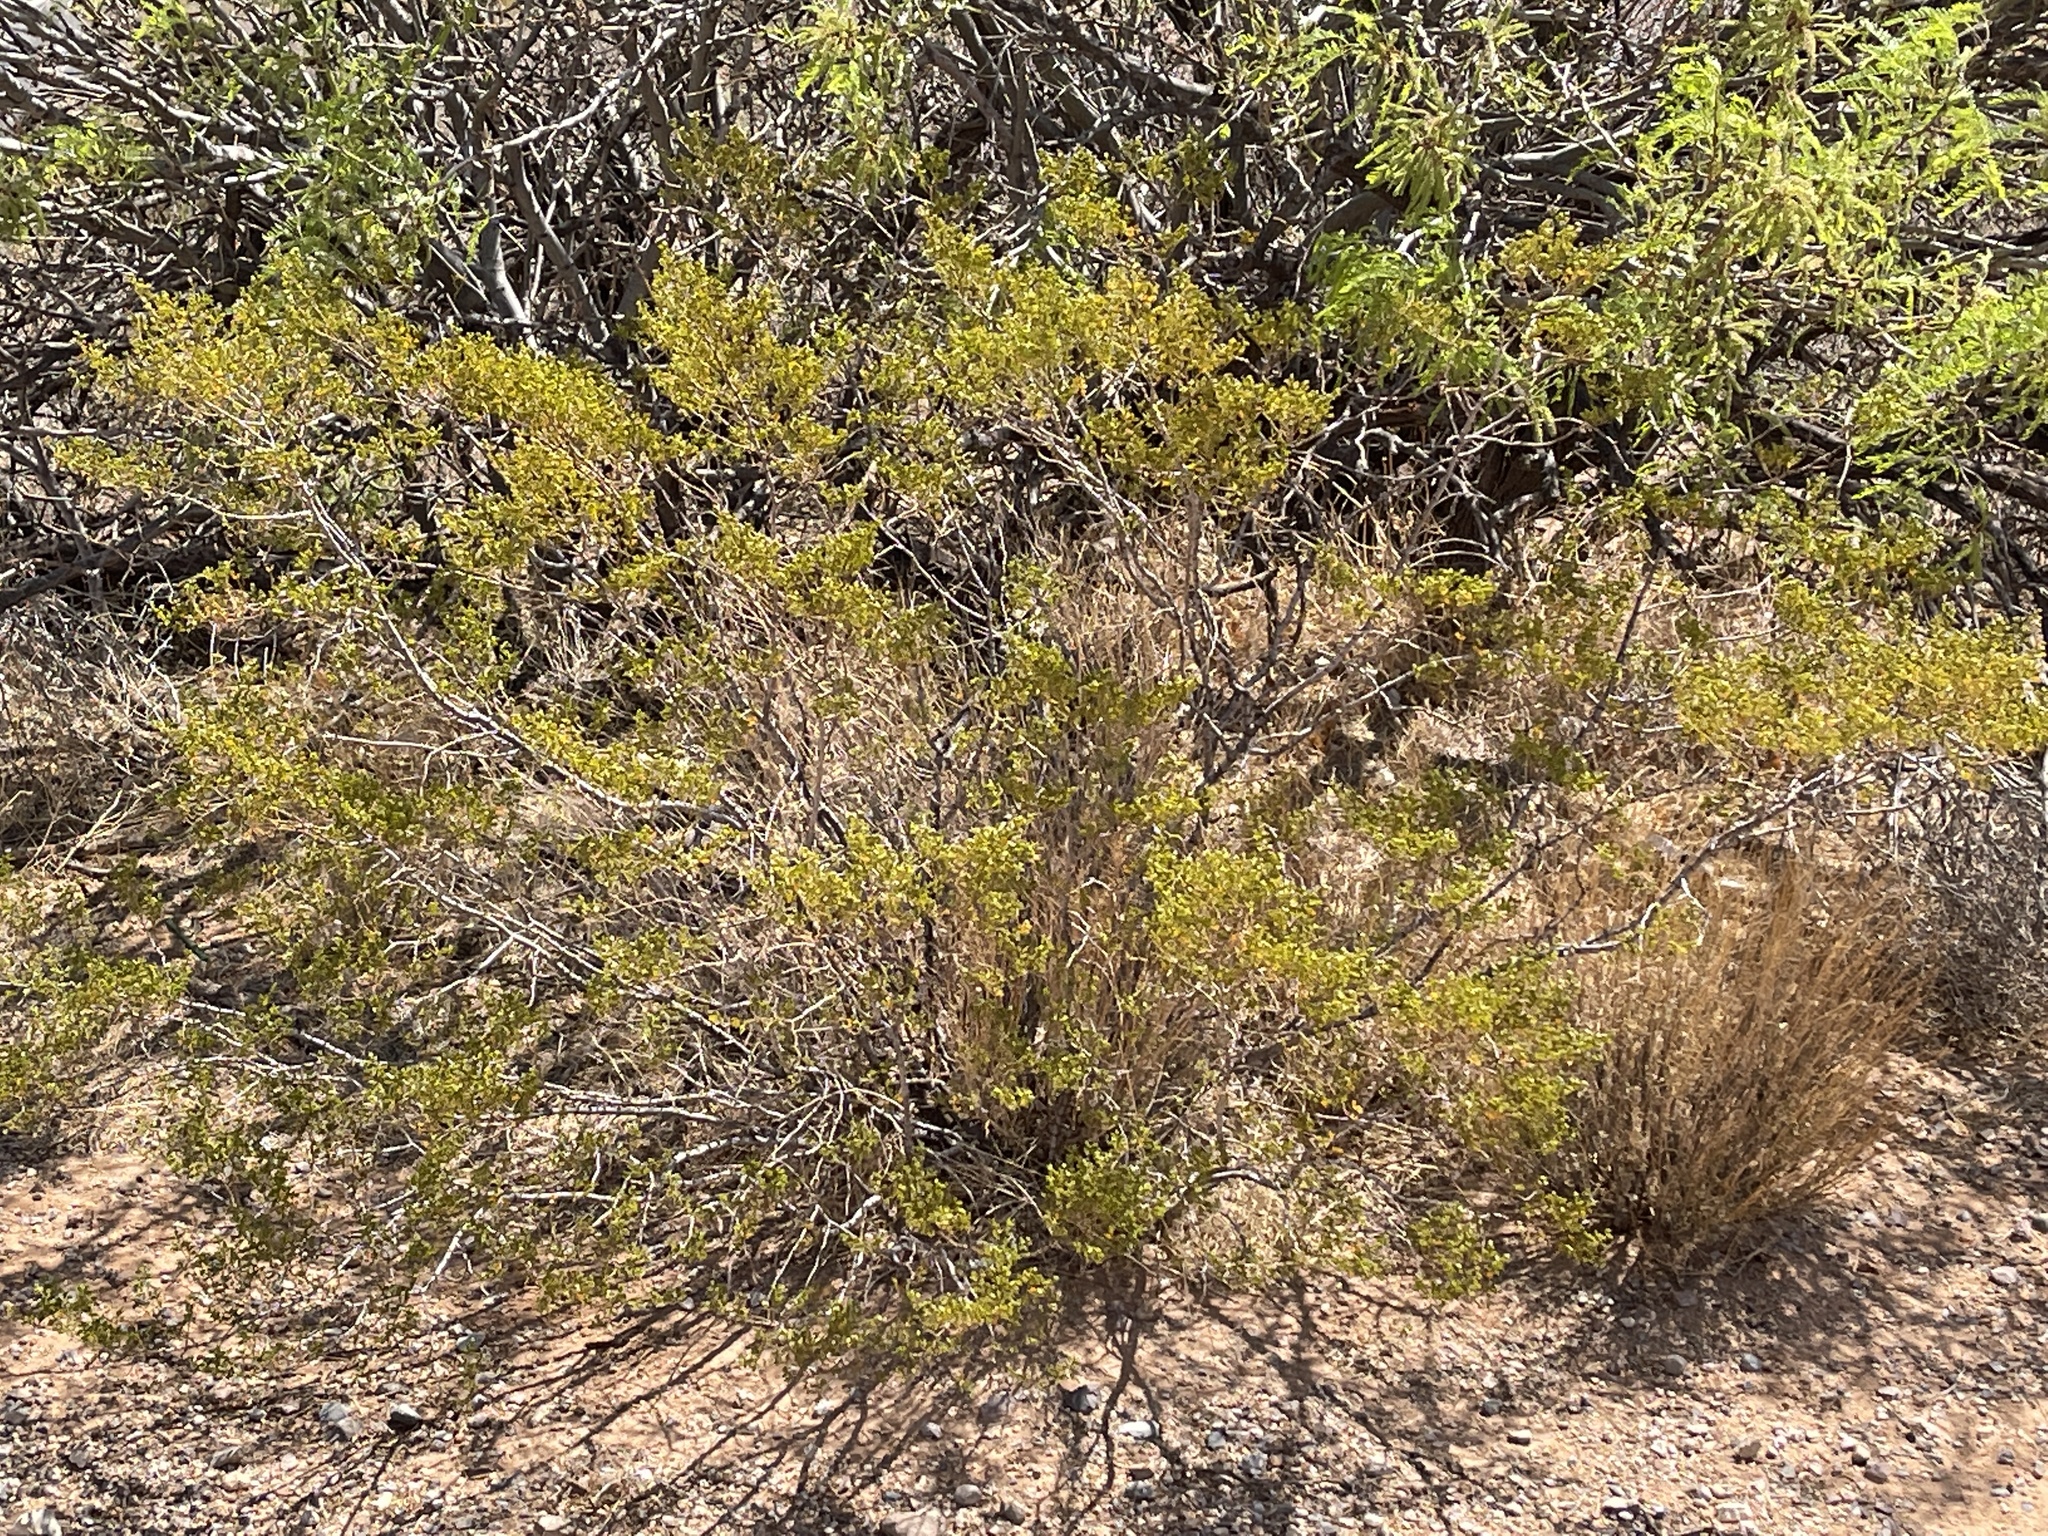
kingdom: Plantae
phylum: Tracheophyta
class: Magnoliopsida
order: Zygophyllales
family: Zygophyllaceae
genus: Larrea
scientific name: Larrea tridentata
